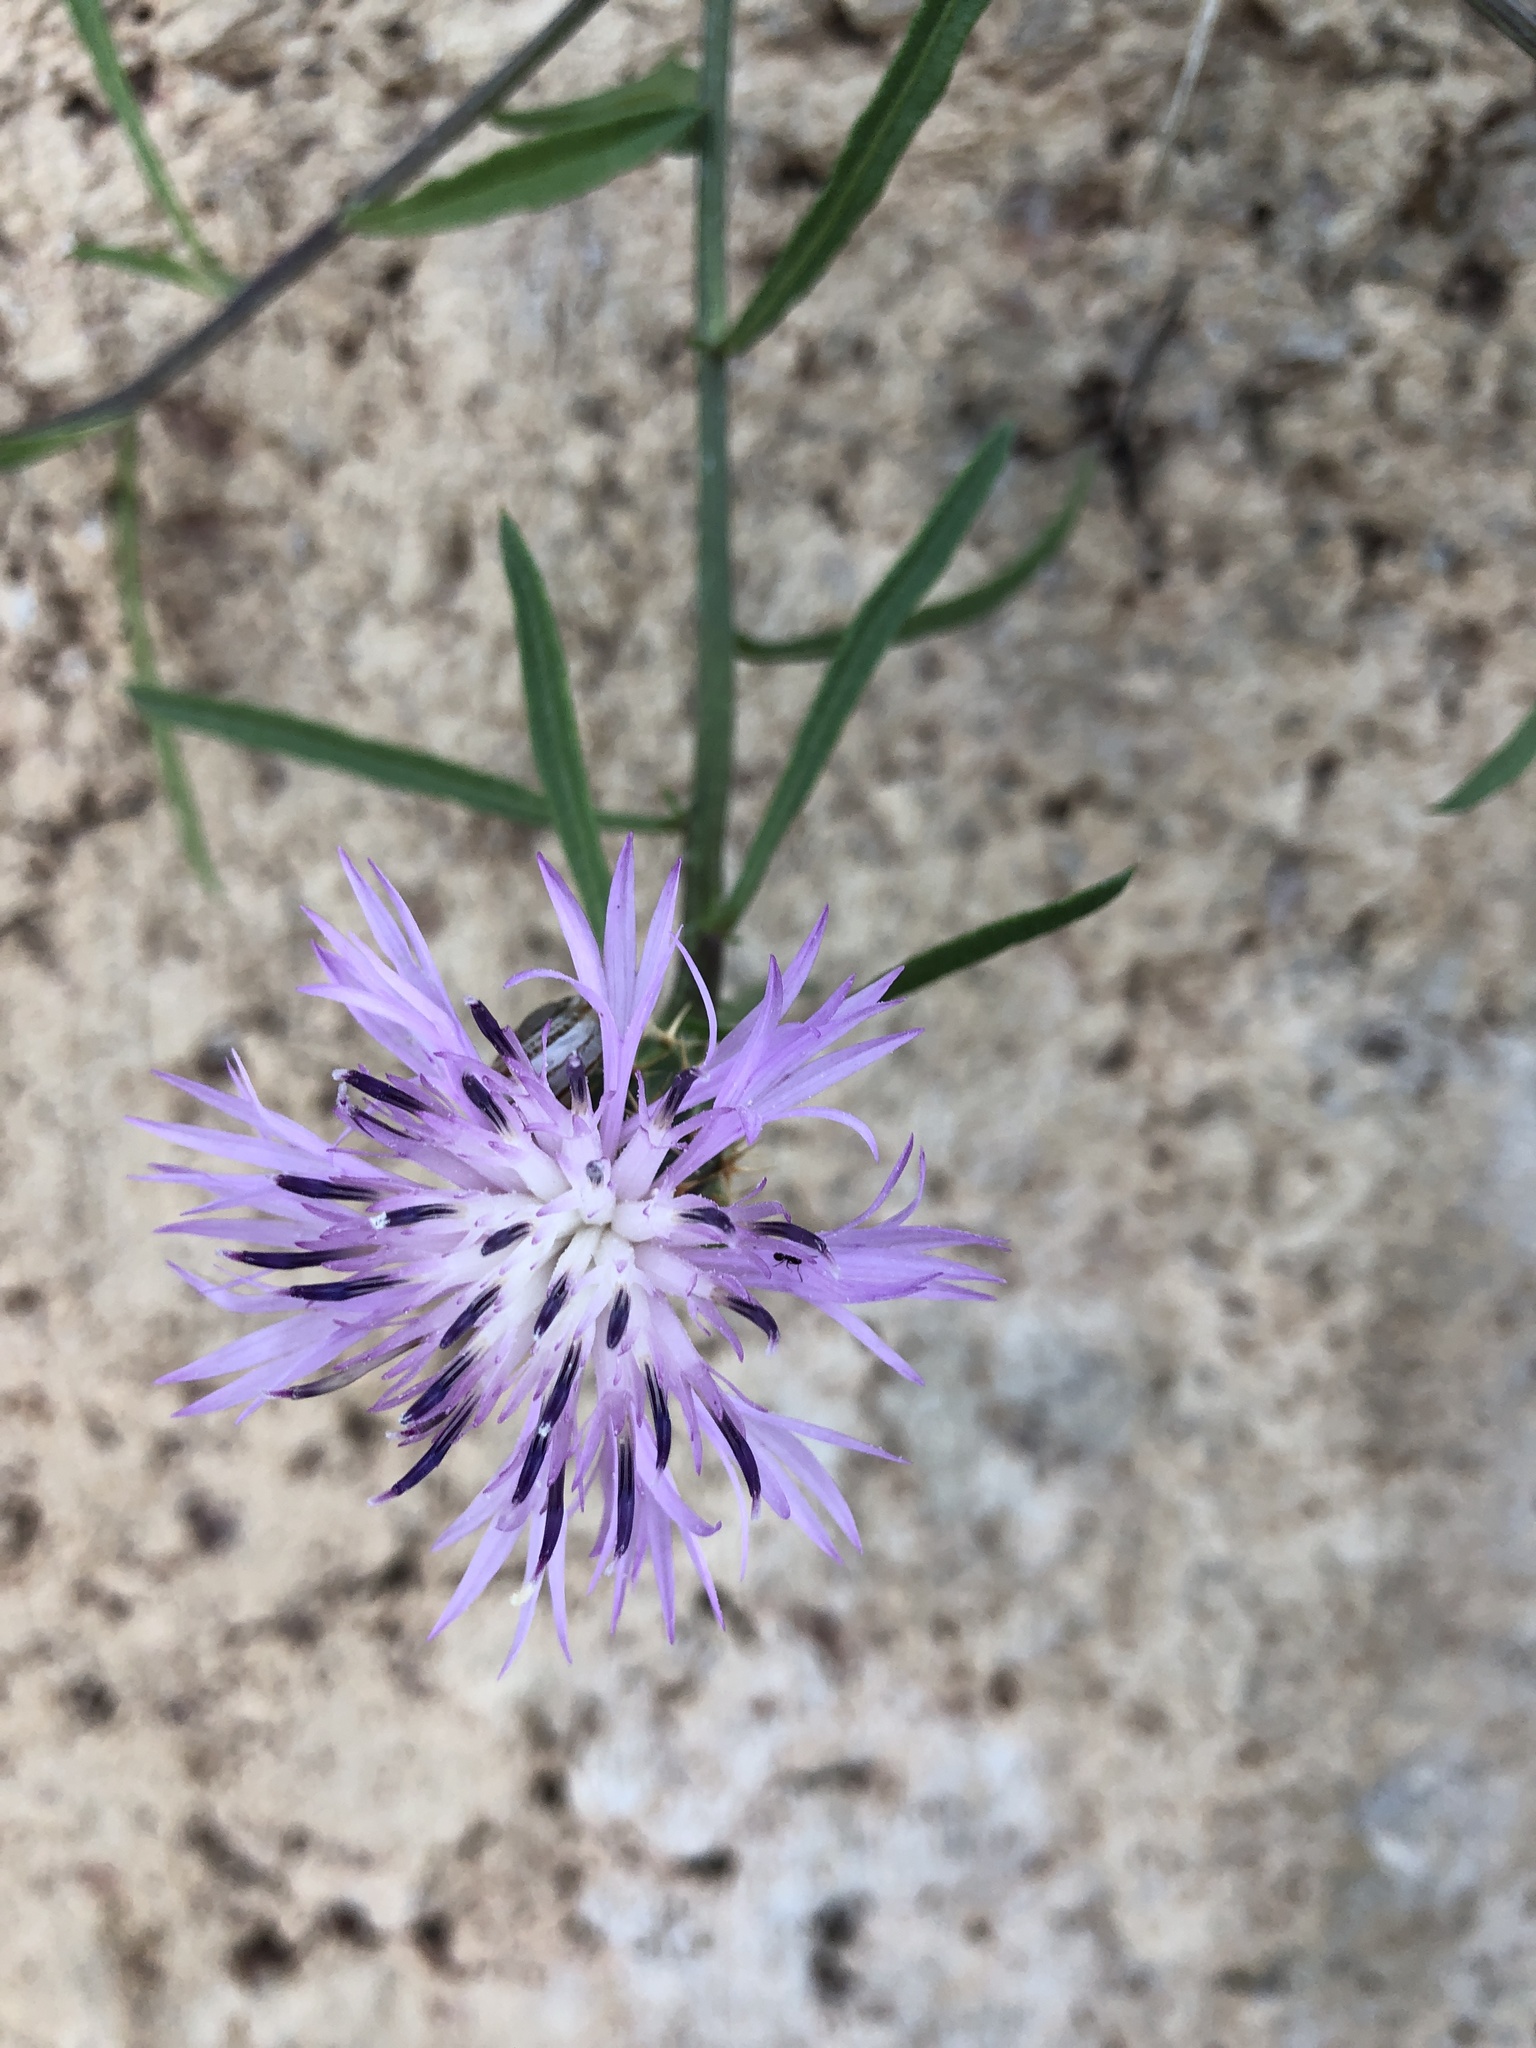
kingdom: Plantae
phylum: Tracheophyta
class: Magnoliopsida
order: Asterales
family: Asteraceae
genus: Centaurea
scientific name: Centaurea aspera
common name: Rough star-thistle
